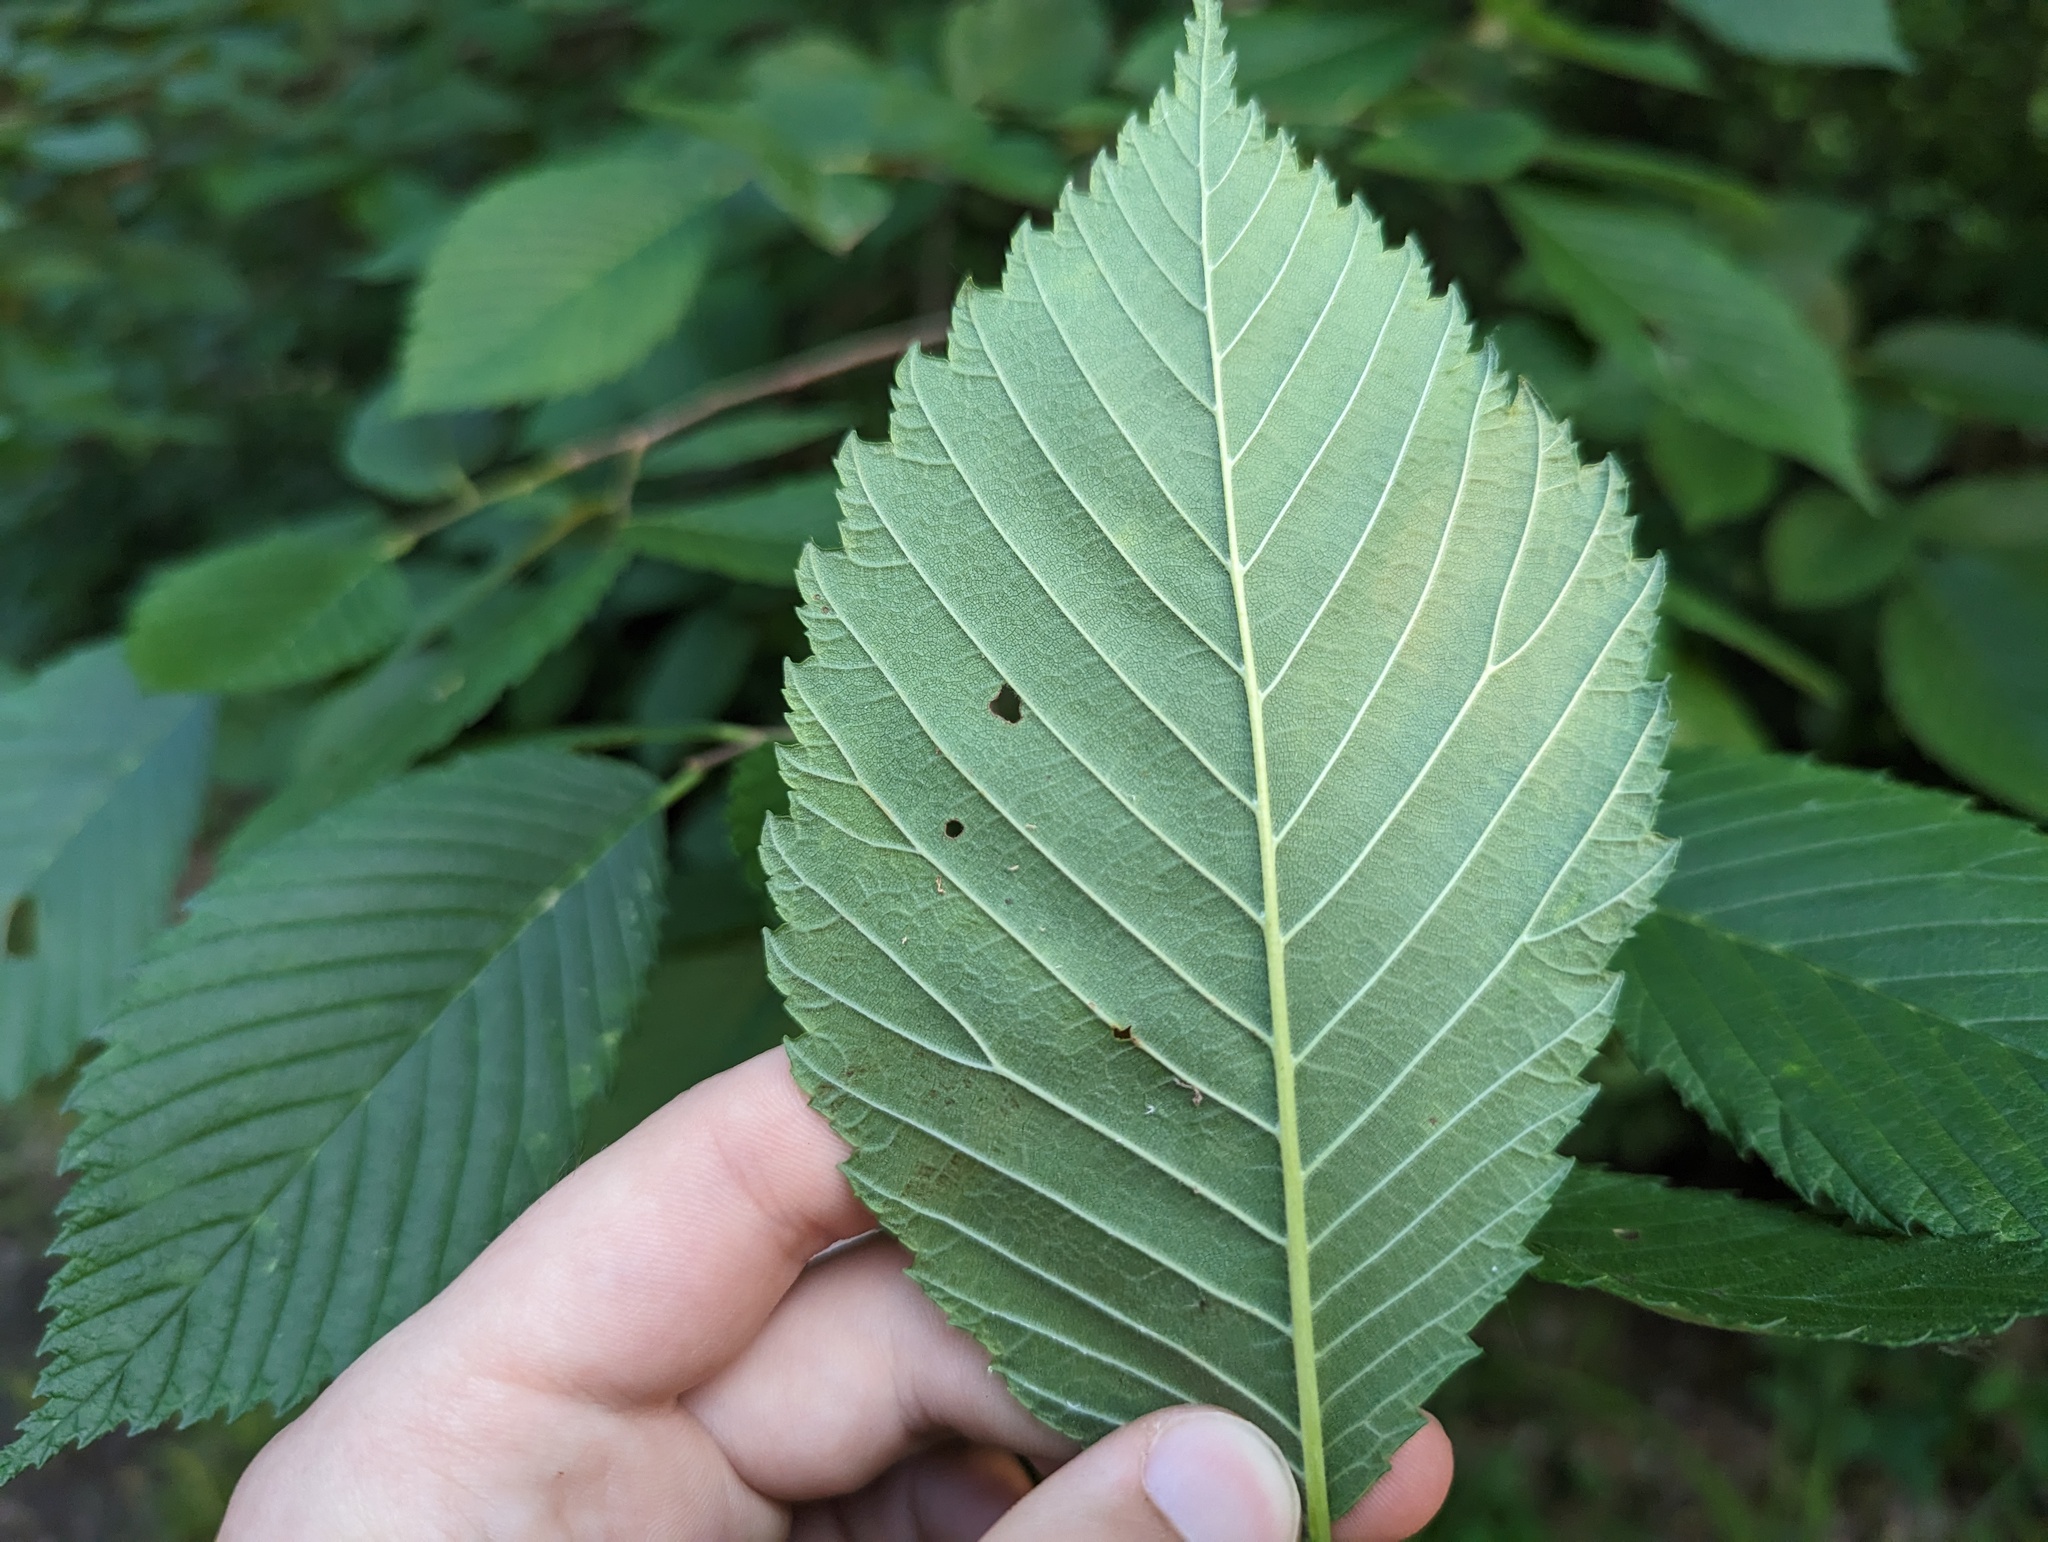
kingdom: Plantae
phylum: Tracheophyta
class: Magnoliopsida
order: Rosales
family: Ulmaceae
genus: Ulmus
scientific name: Ulmus rubra
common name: Slippery elm
